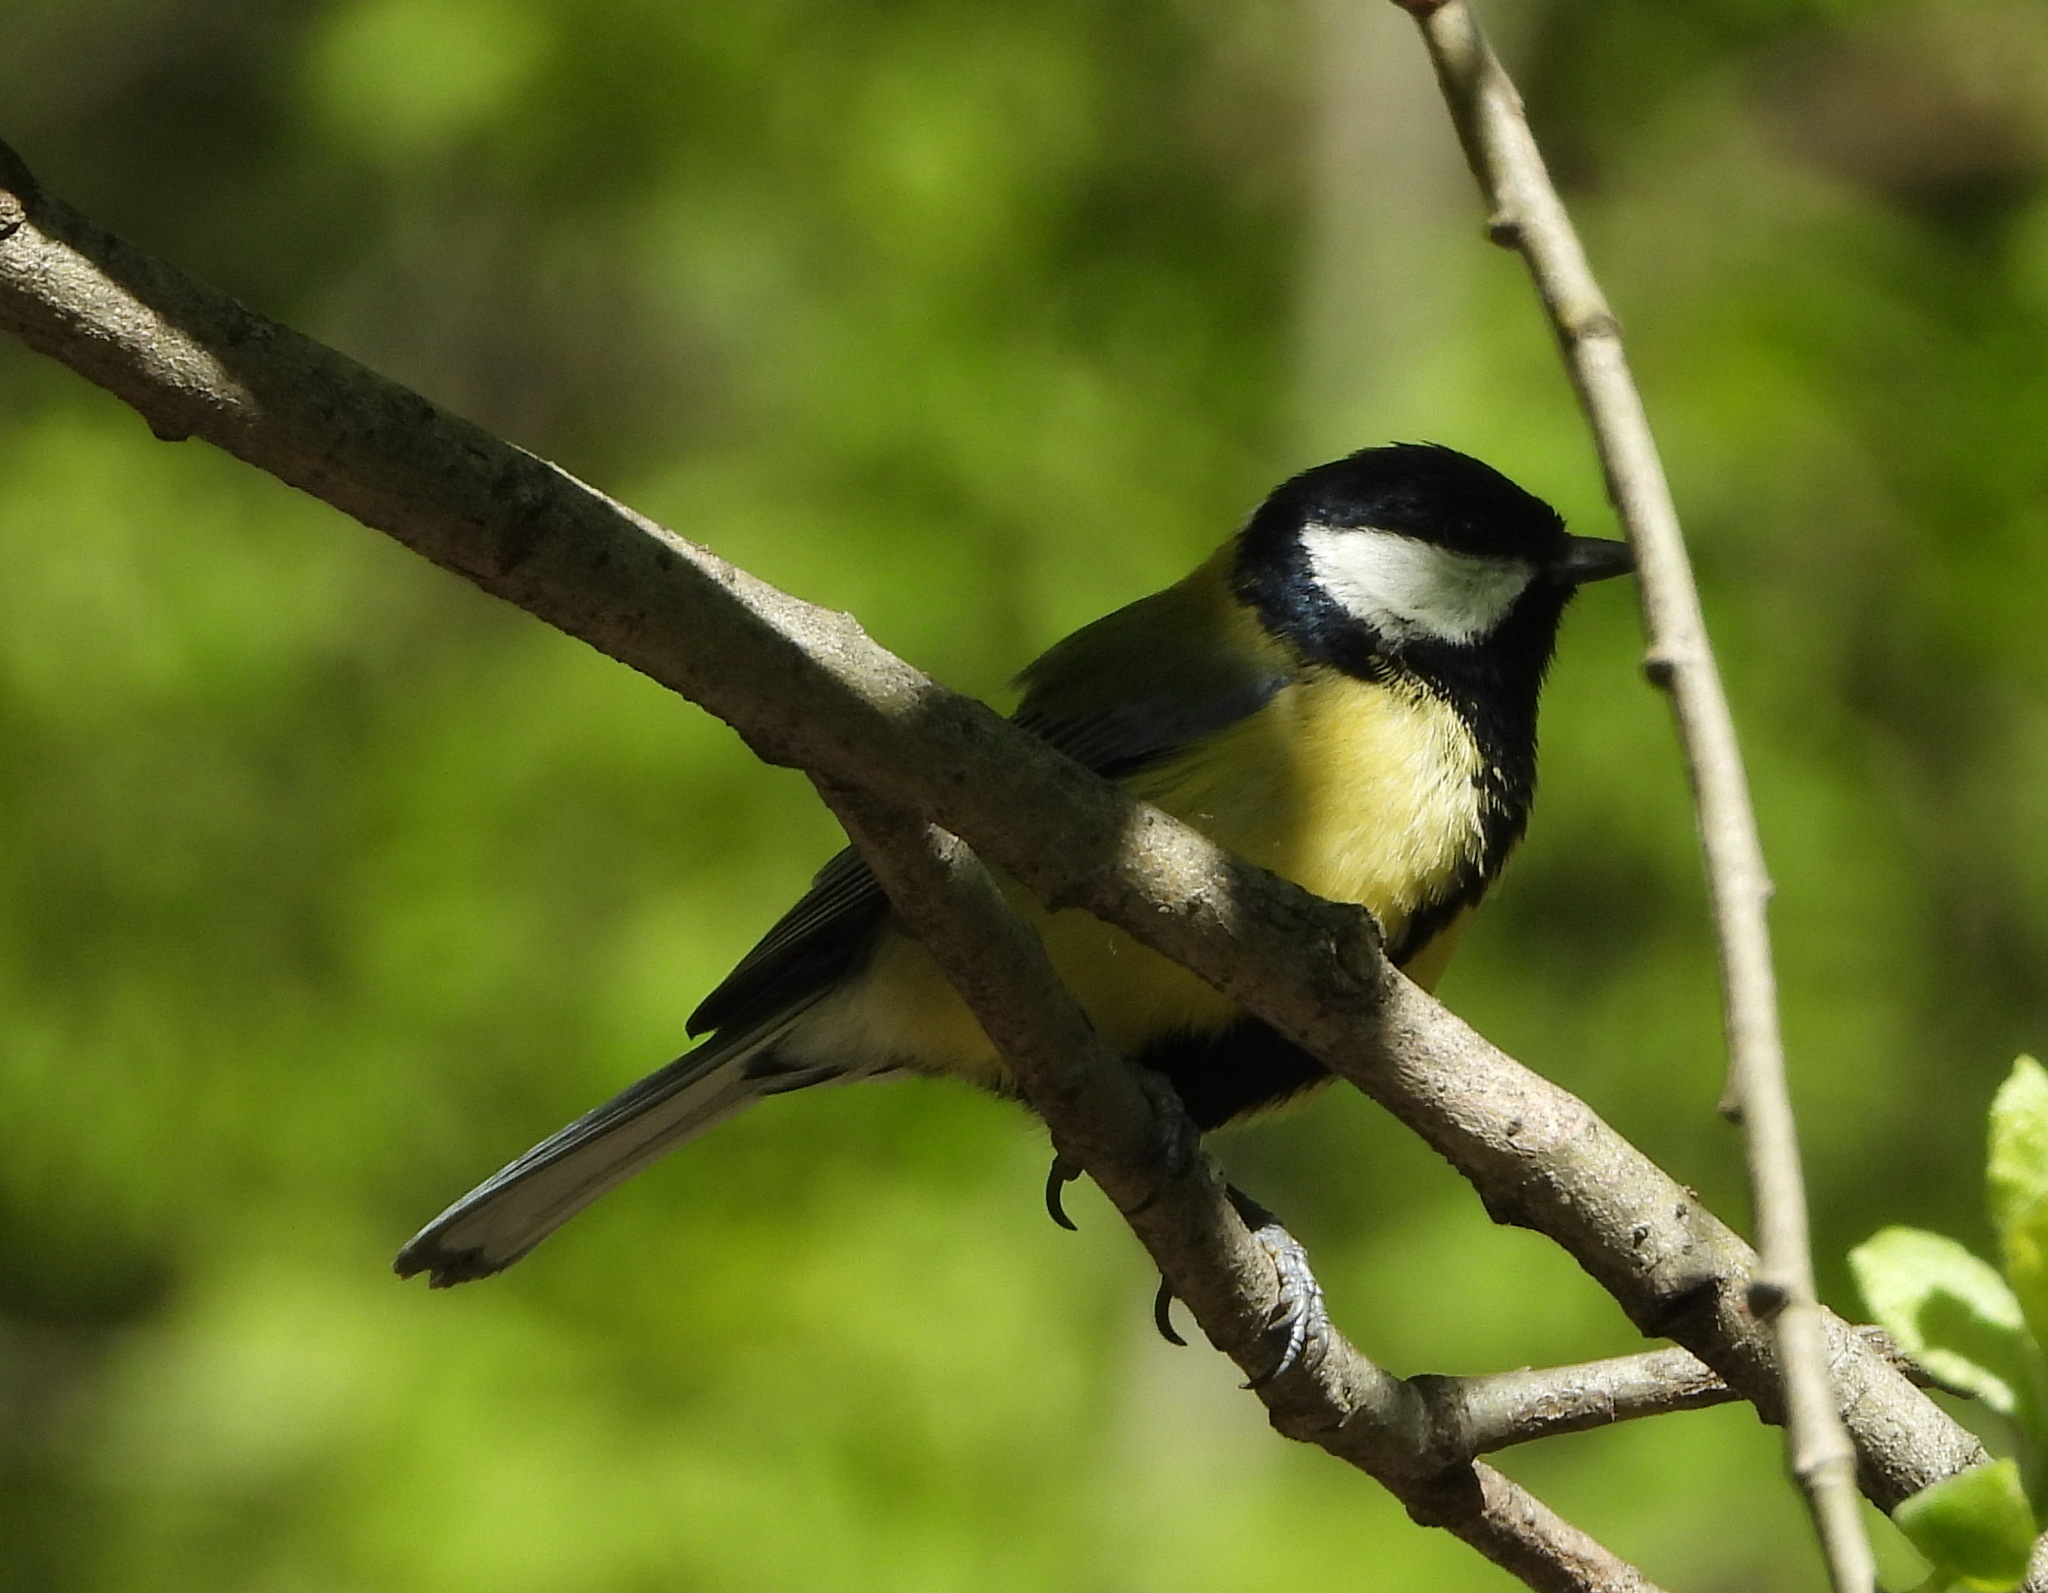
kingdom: Animalia
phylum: Chordata
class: Aves
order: Passeriformes
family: Paridae
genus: Parus
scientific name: Parus major
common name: Great tit
